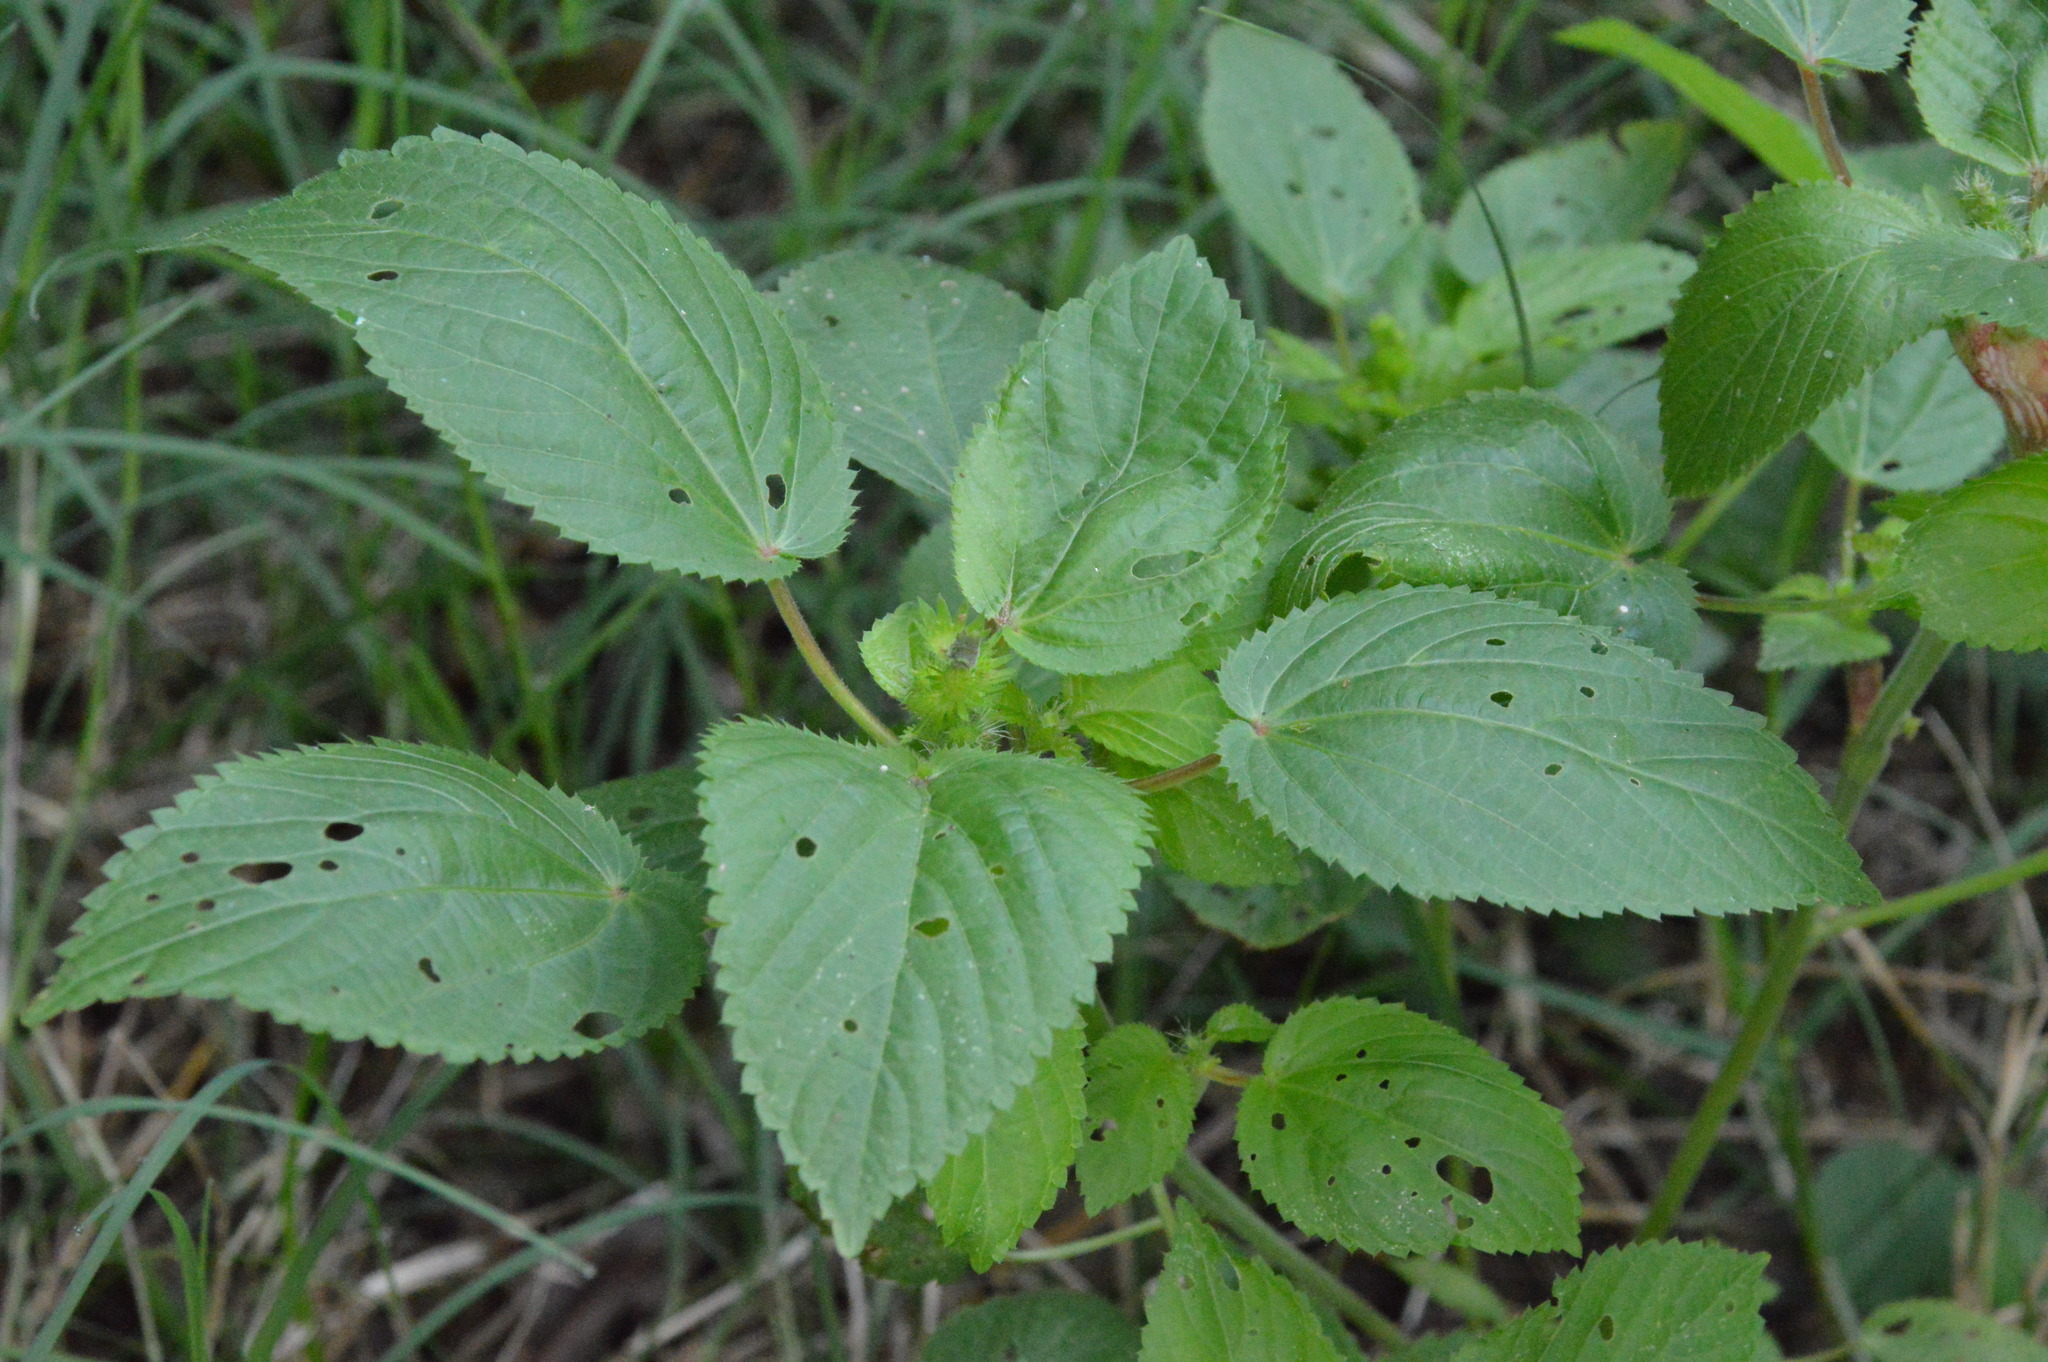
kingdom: Plantae
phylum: Tracheophyta
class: Magnoliopsida
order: Malpighiales
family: Euphorbiaceae
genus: Acalypha
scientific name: Acalypha ostryifolia
